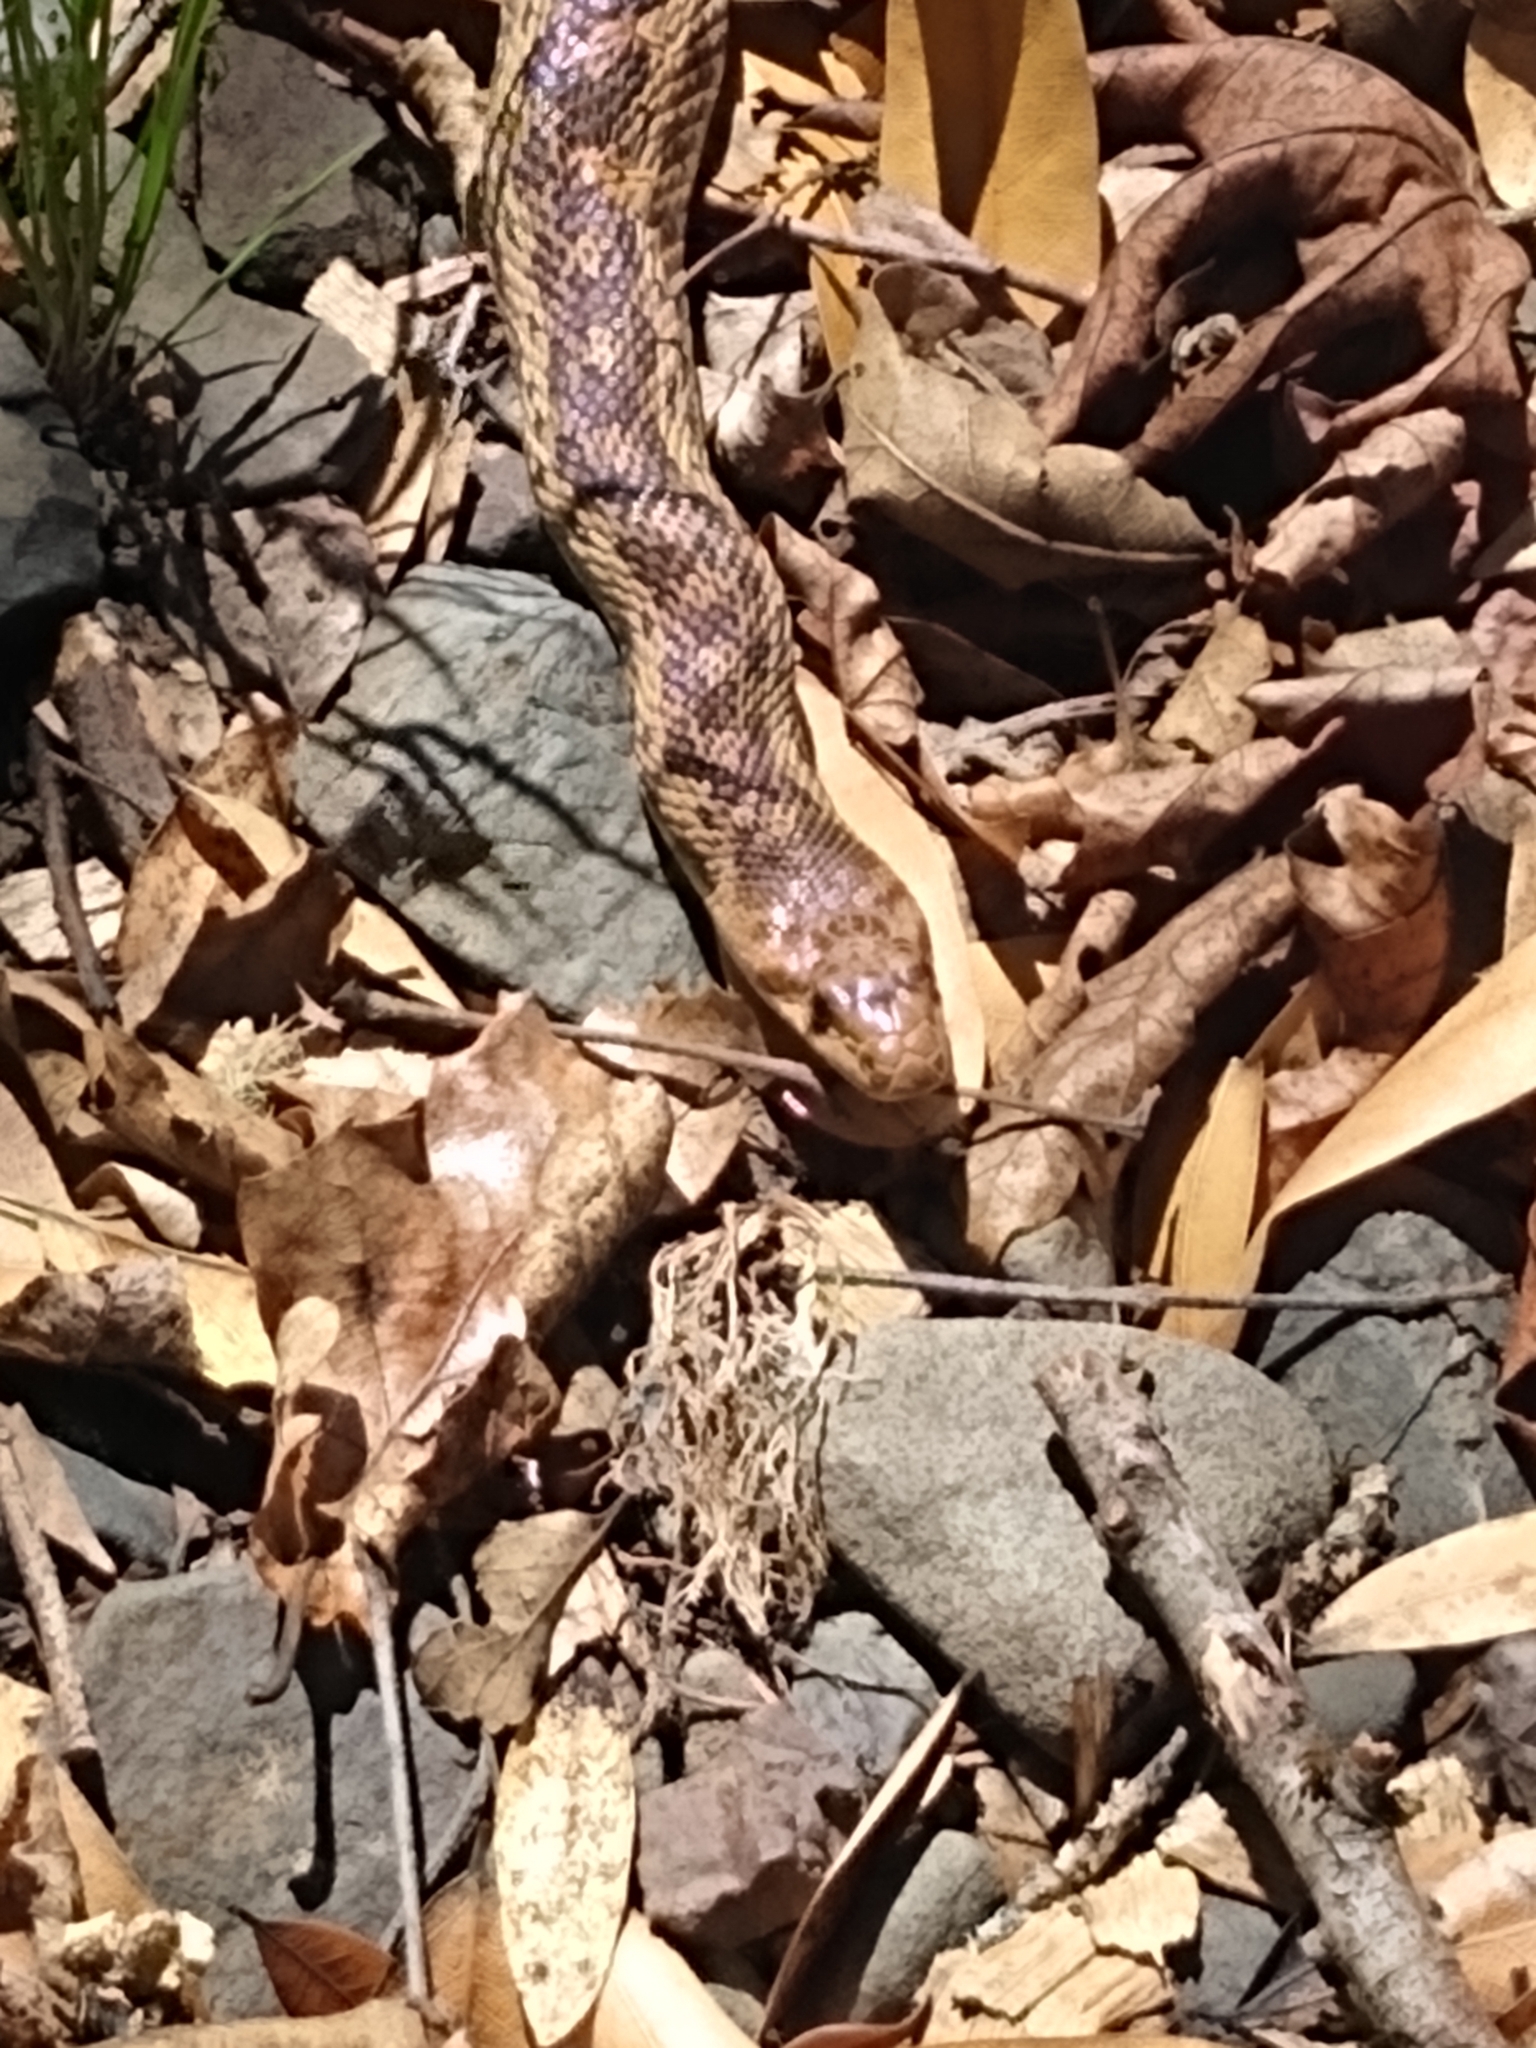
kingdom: Animalia
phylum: Chordata
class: Squamata
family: Colubridae
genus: Pituophis
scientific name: Pituophis catenifer
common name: Gopher snake
